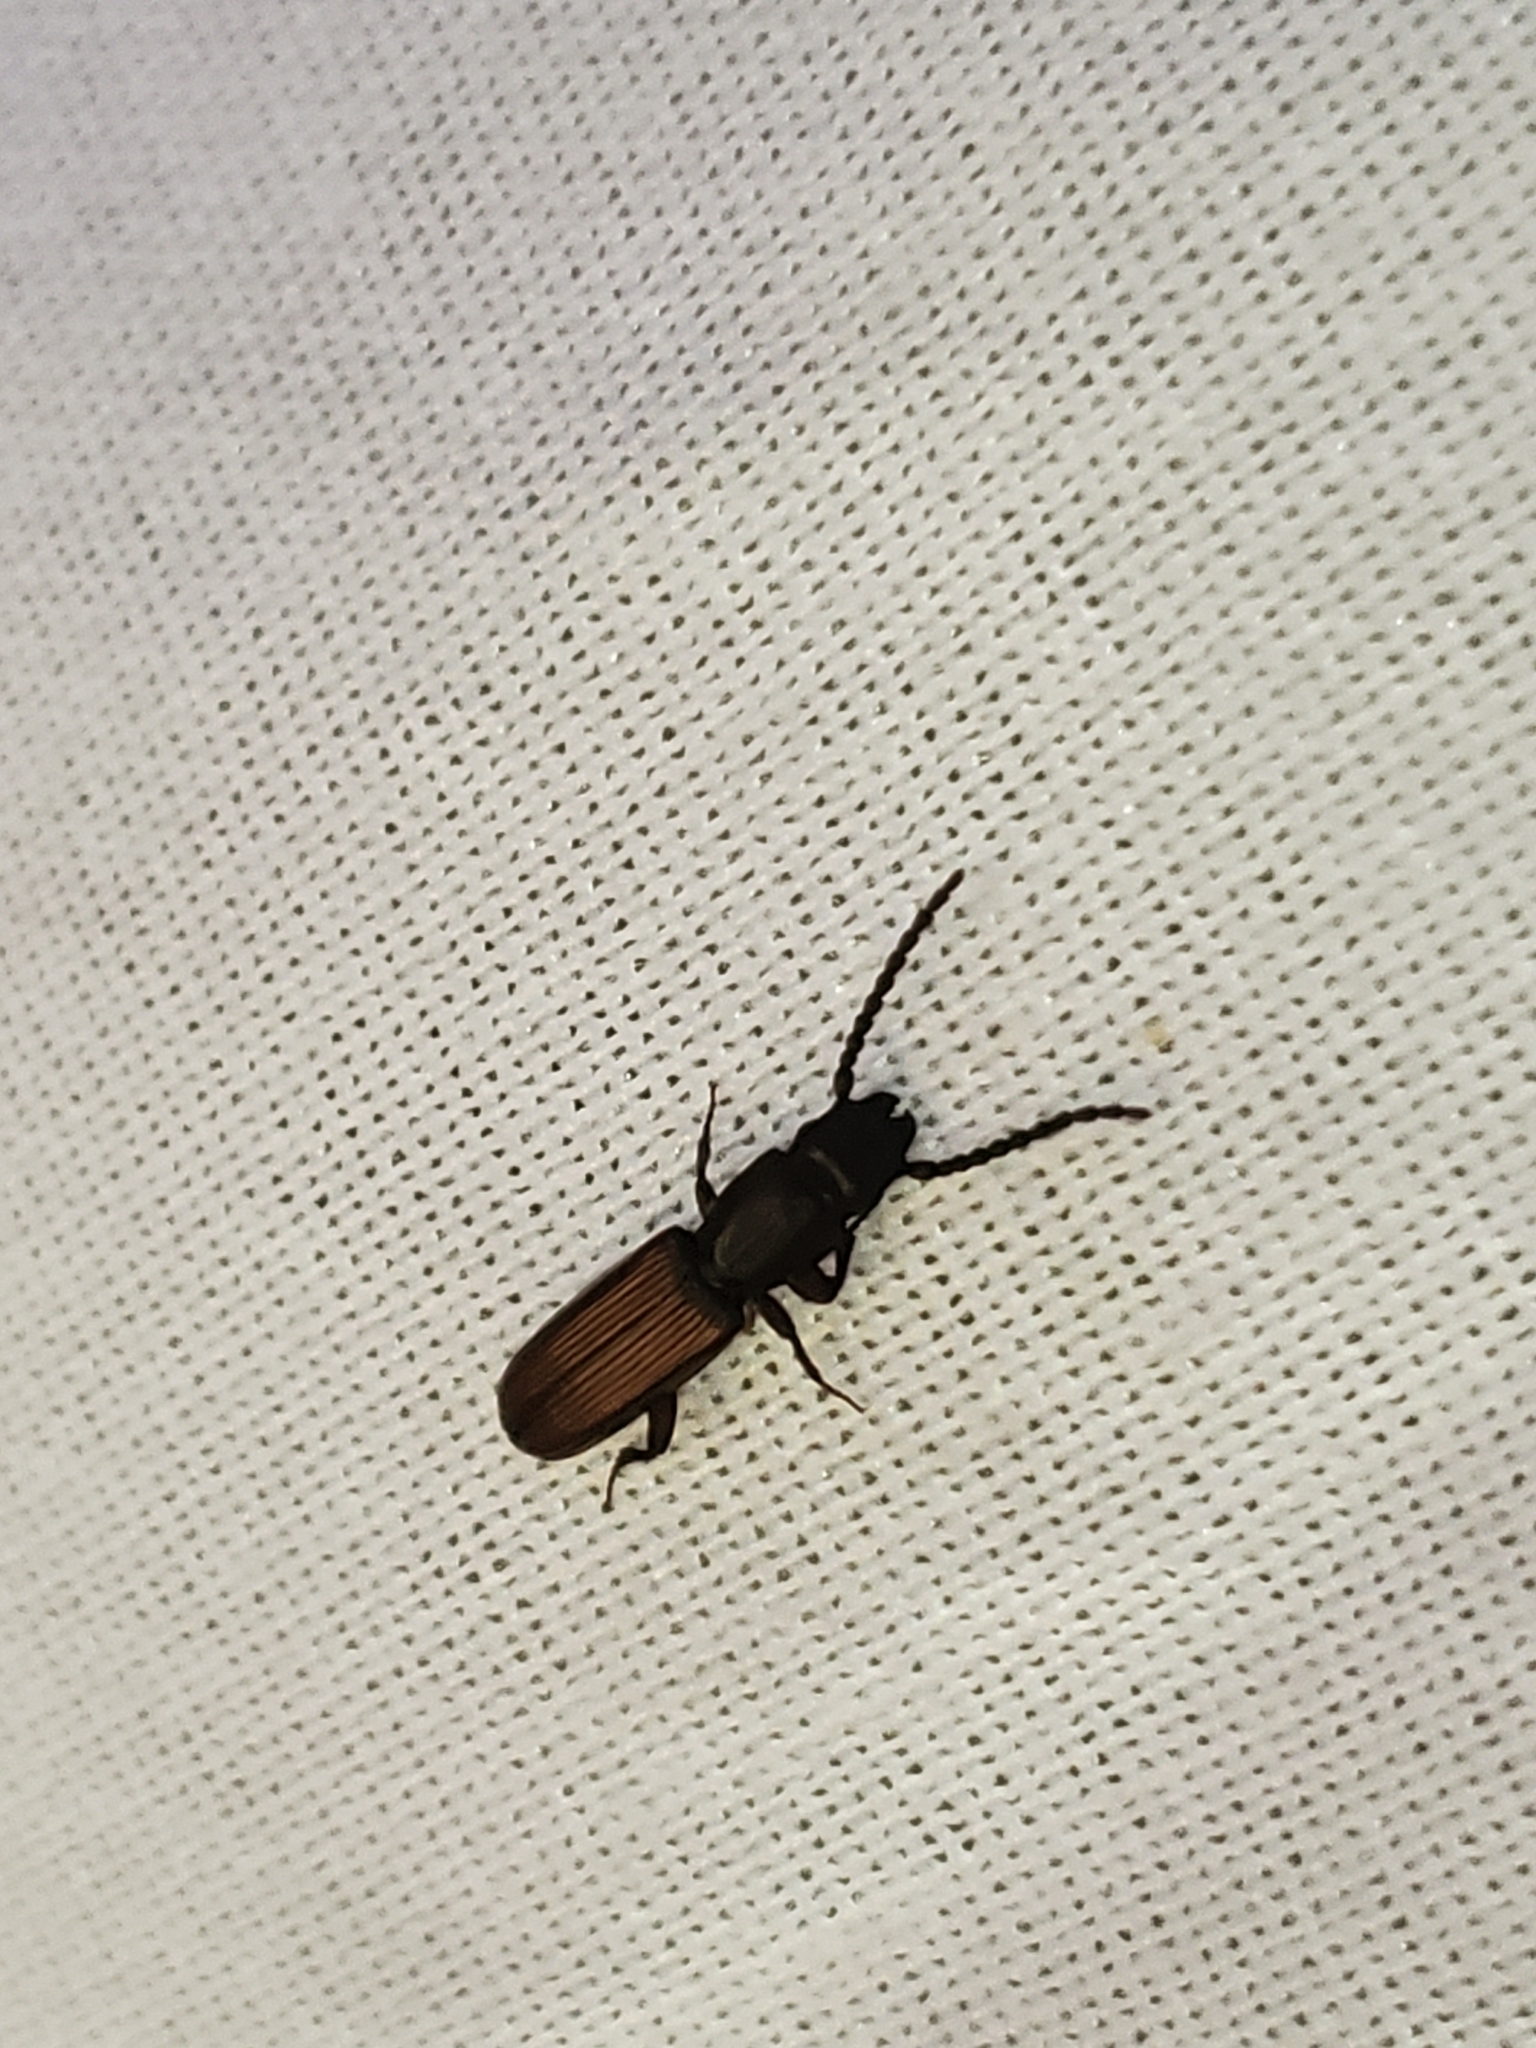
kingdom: Animalia
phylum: Arthropoda
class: Insecta
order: Coleoptera
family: Passandridae
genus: Catogenus
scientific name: Catogenus rufus
